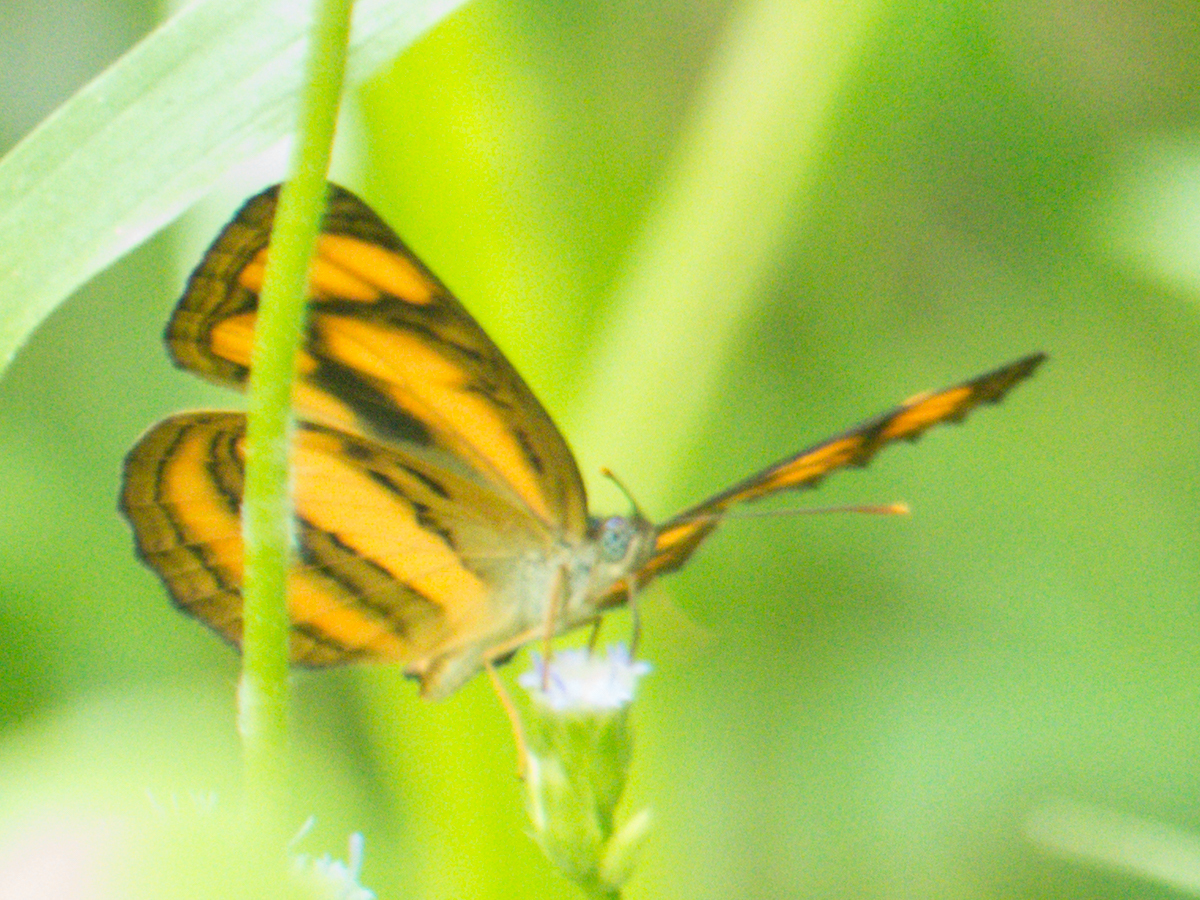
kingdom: Animalia
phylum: Arthropoda
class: Insecta
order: Lepidoptera
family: Nymphalidae
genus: Pantoporia
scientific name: Pantoporia hordonia
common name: Common lascar
